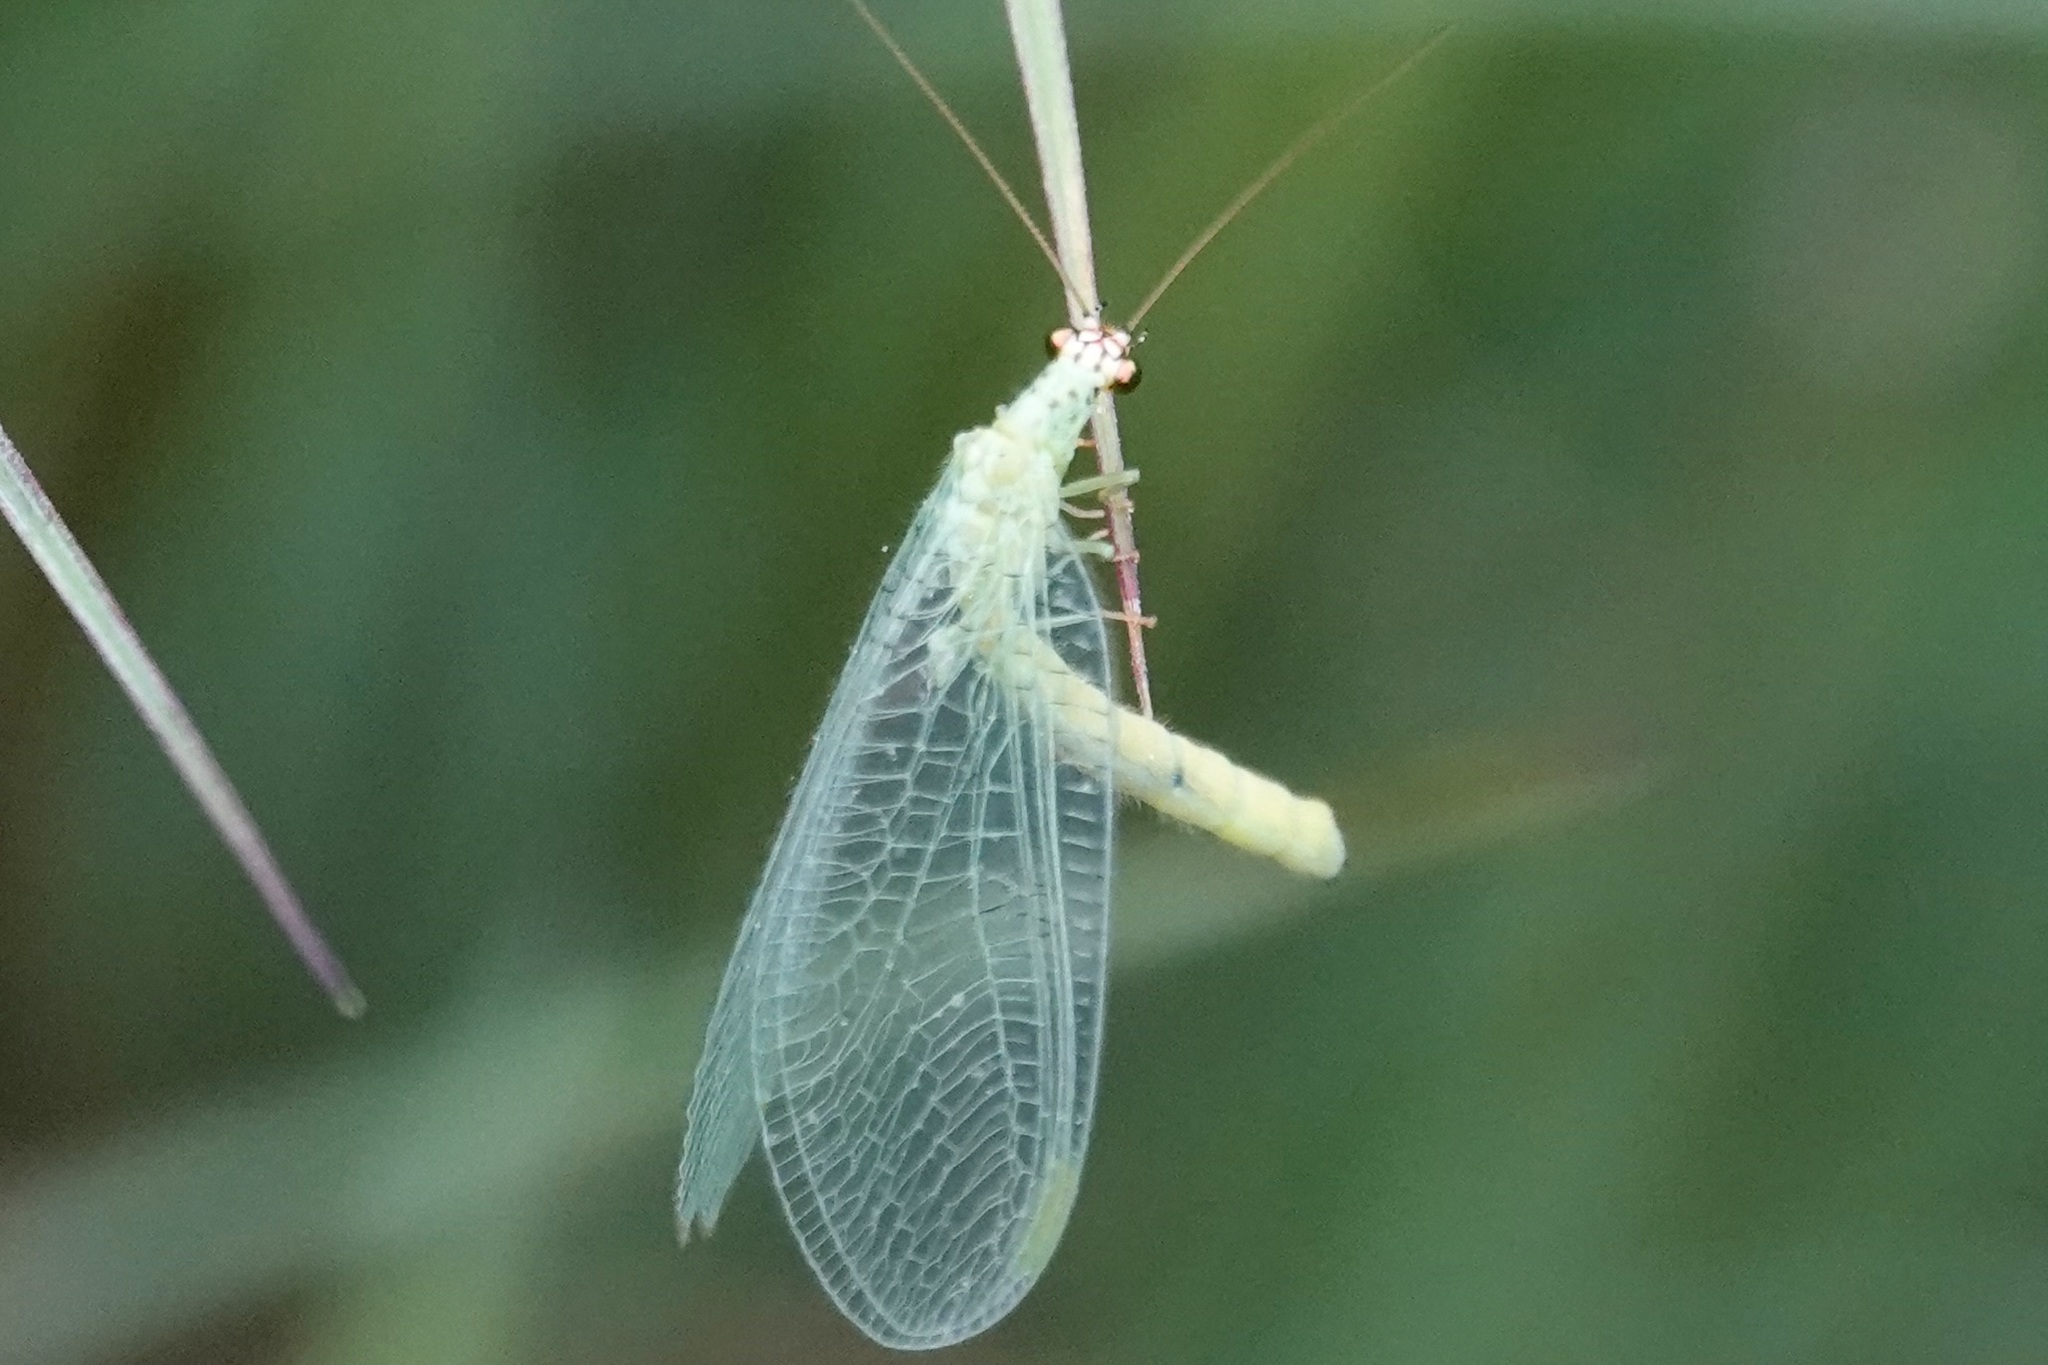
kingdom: Animalia
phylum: Arthropoda
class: Insecta
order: Neuroptera
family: Chrysopidae
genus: Chrysopa
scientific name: Chrysopa oculata
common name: Golden-eyed lacewing
